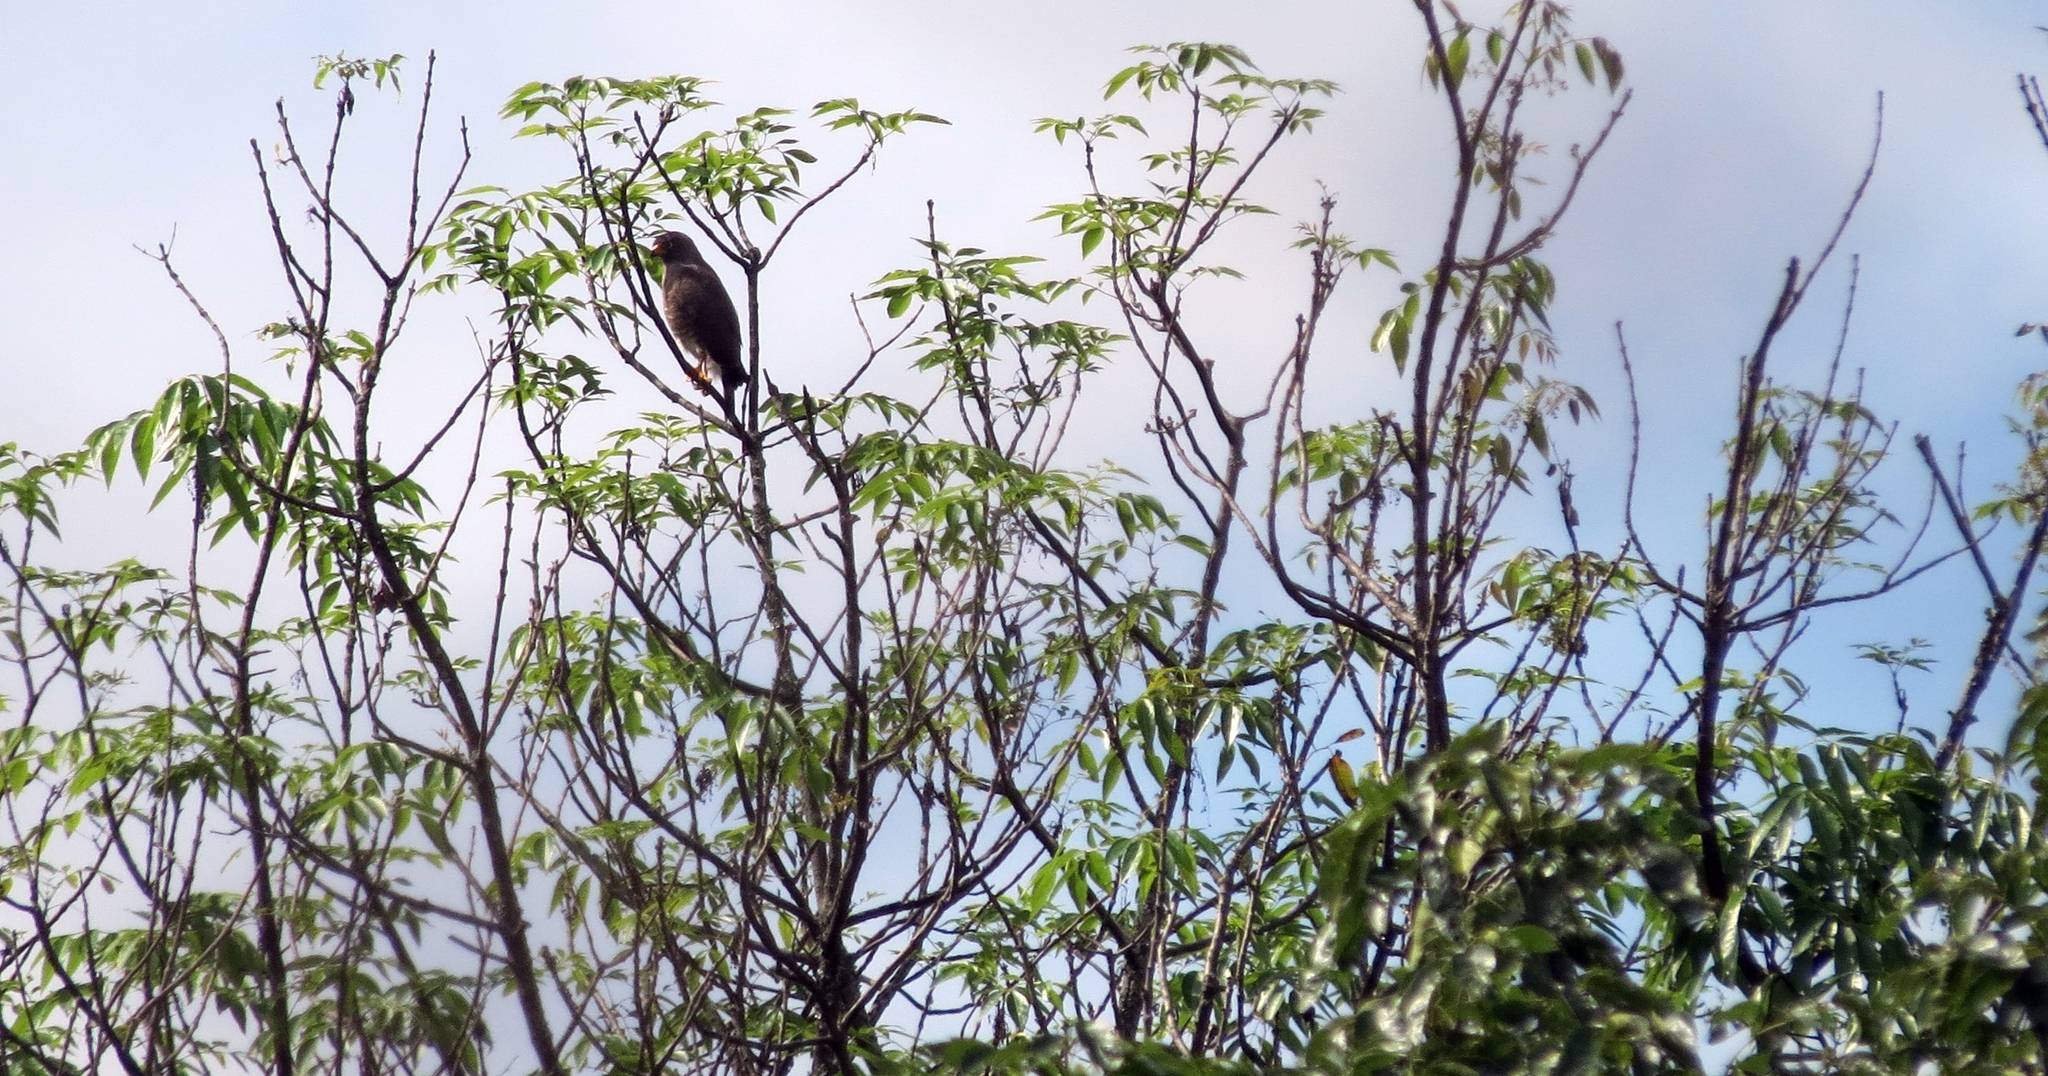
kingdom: Animalia
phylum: Chordata
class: Aves
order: Accipitriformes
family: Accipitridae
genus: Rupornis
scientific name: Rupornis magnirostris
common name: Roadside hawk
